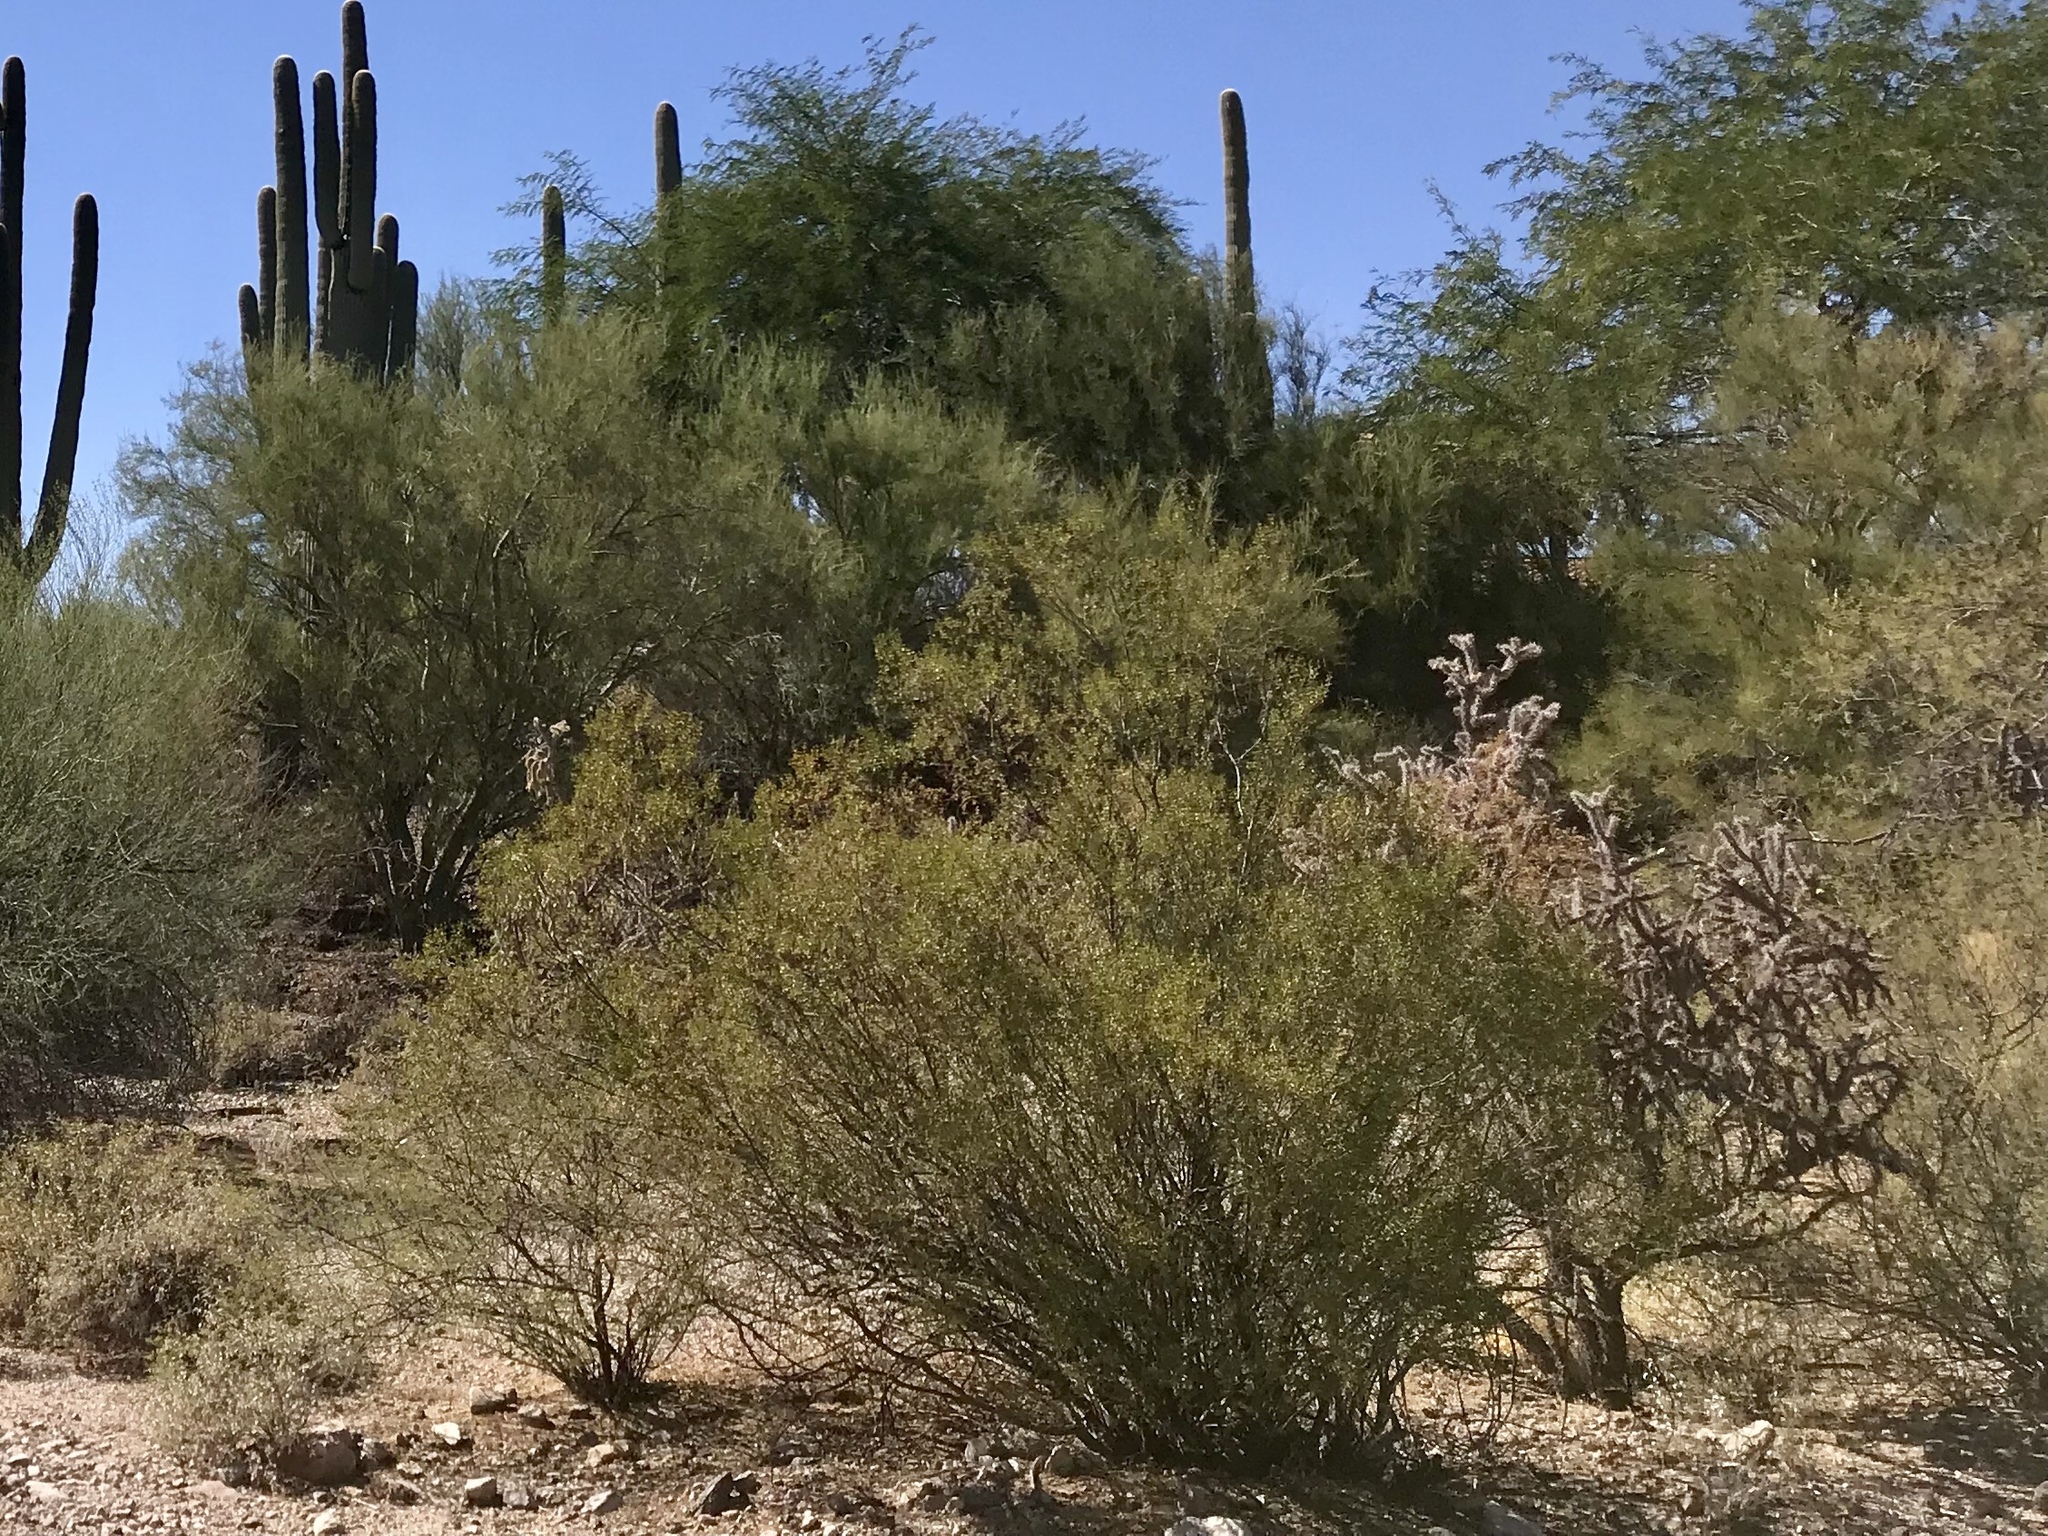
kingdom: Plantae
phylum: Tracheophyta
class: Magnoliopsida
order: Zygophyllales
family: Zygophyllaceae
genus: Larrea
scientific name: Larrea tridentata
